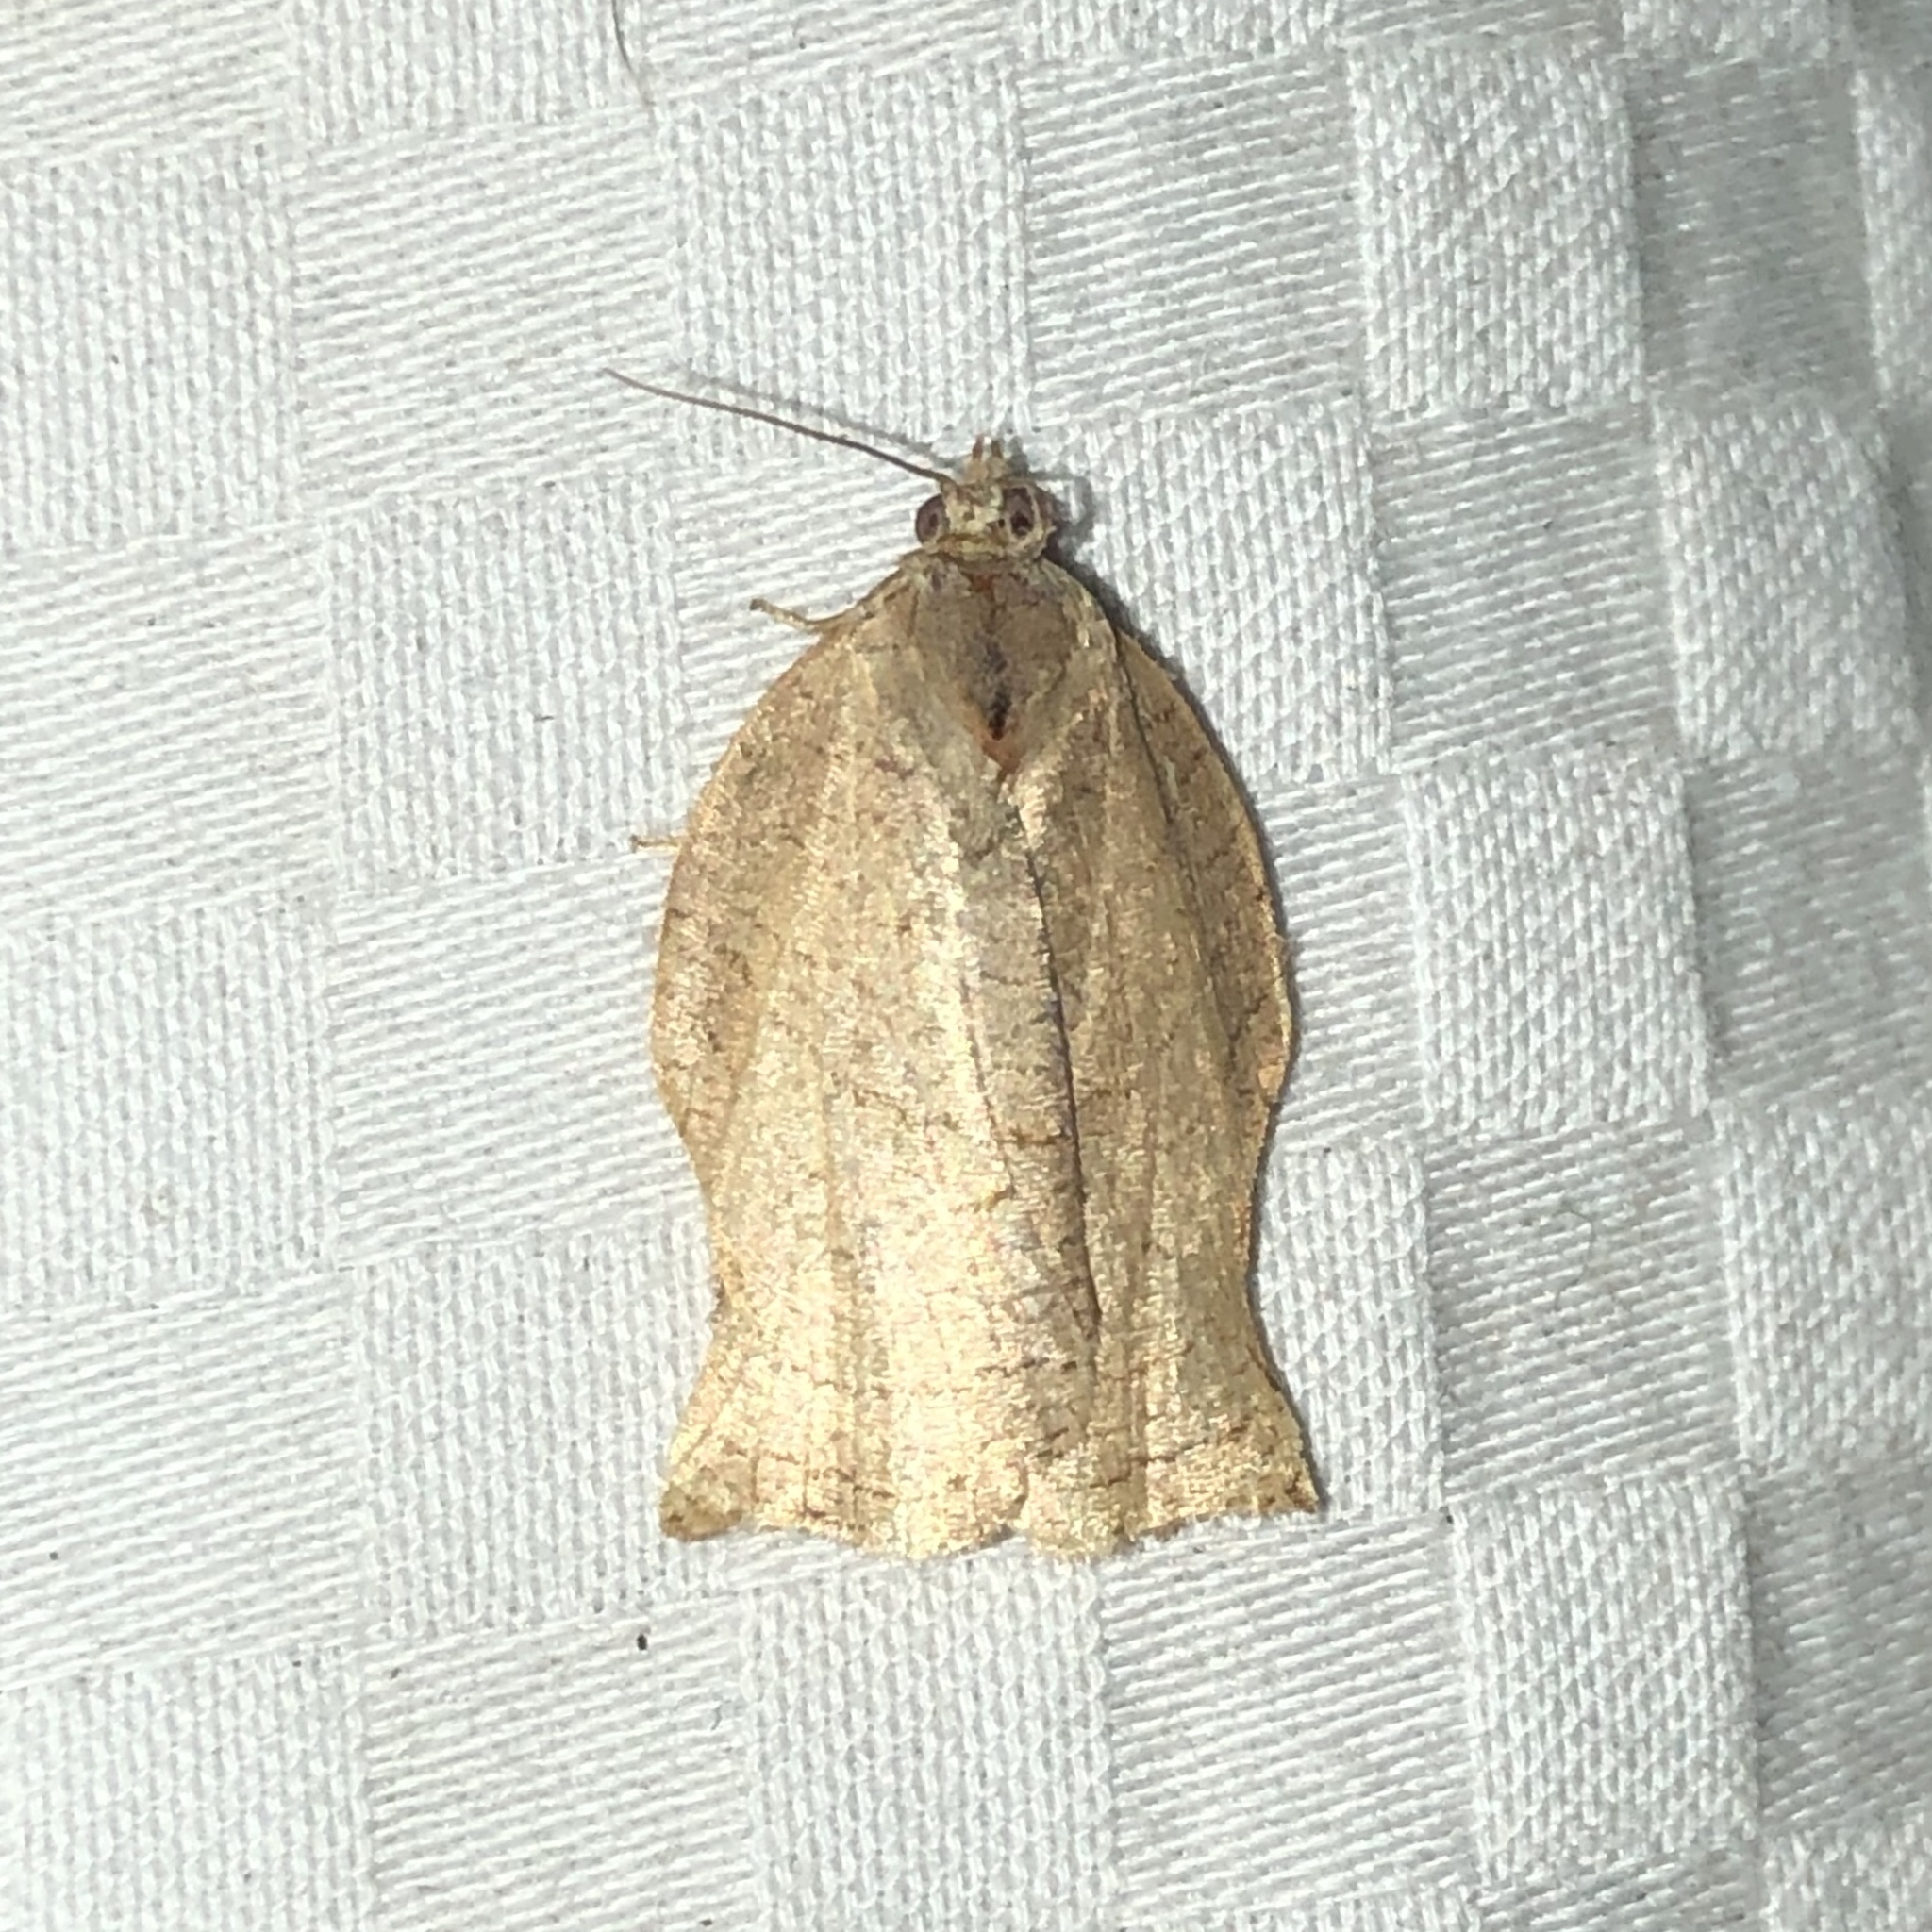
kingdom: Animalia
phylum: Arthropoda
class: Insecta
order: Lepidoptera
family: Tortricidae
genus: Choristoneura
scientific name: Choristoneura rosaceana
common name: Oblique-banded leafroller moth
